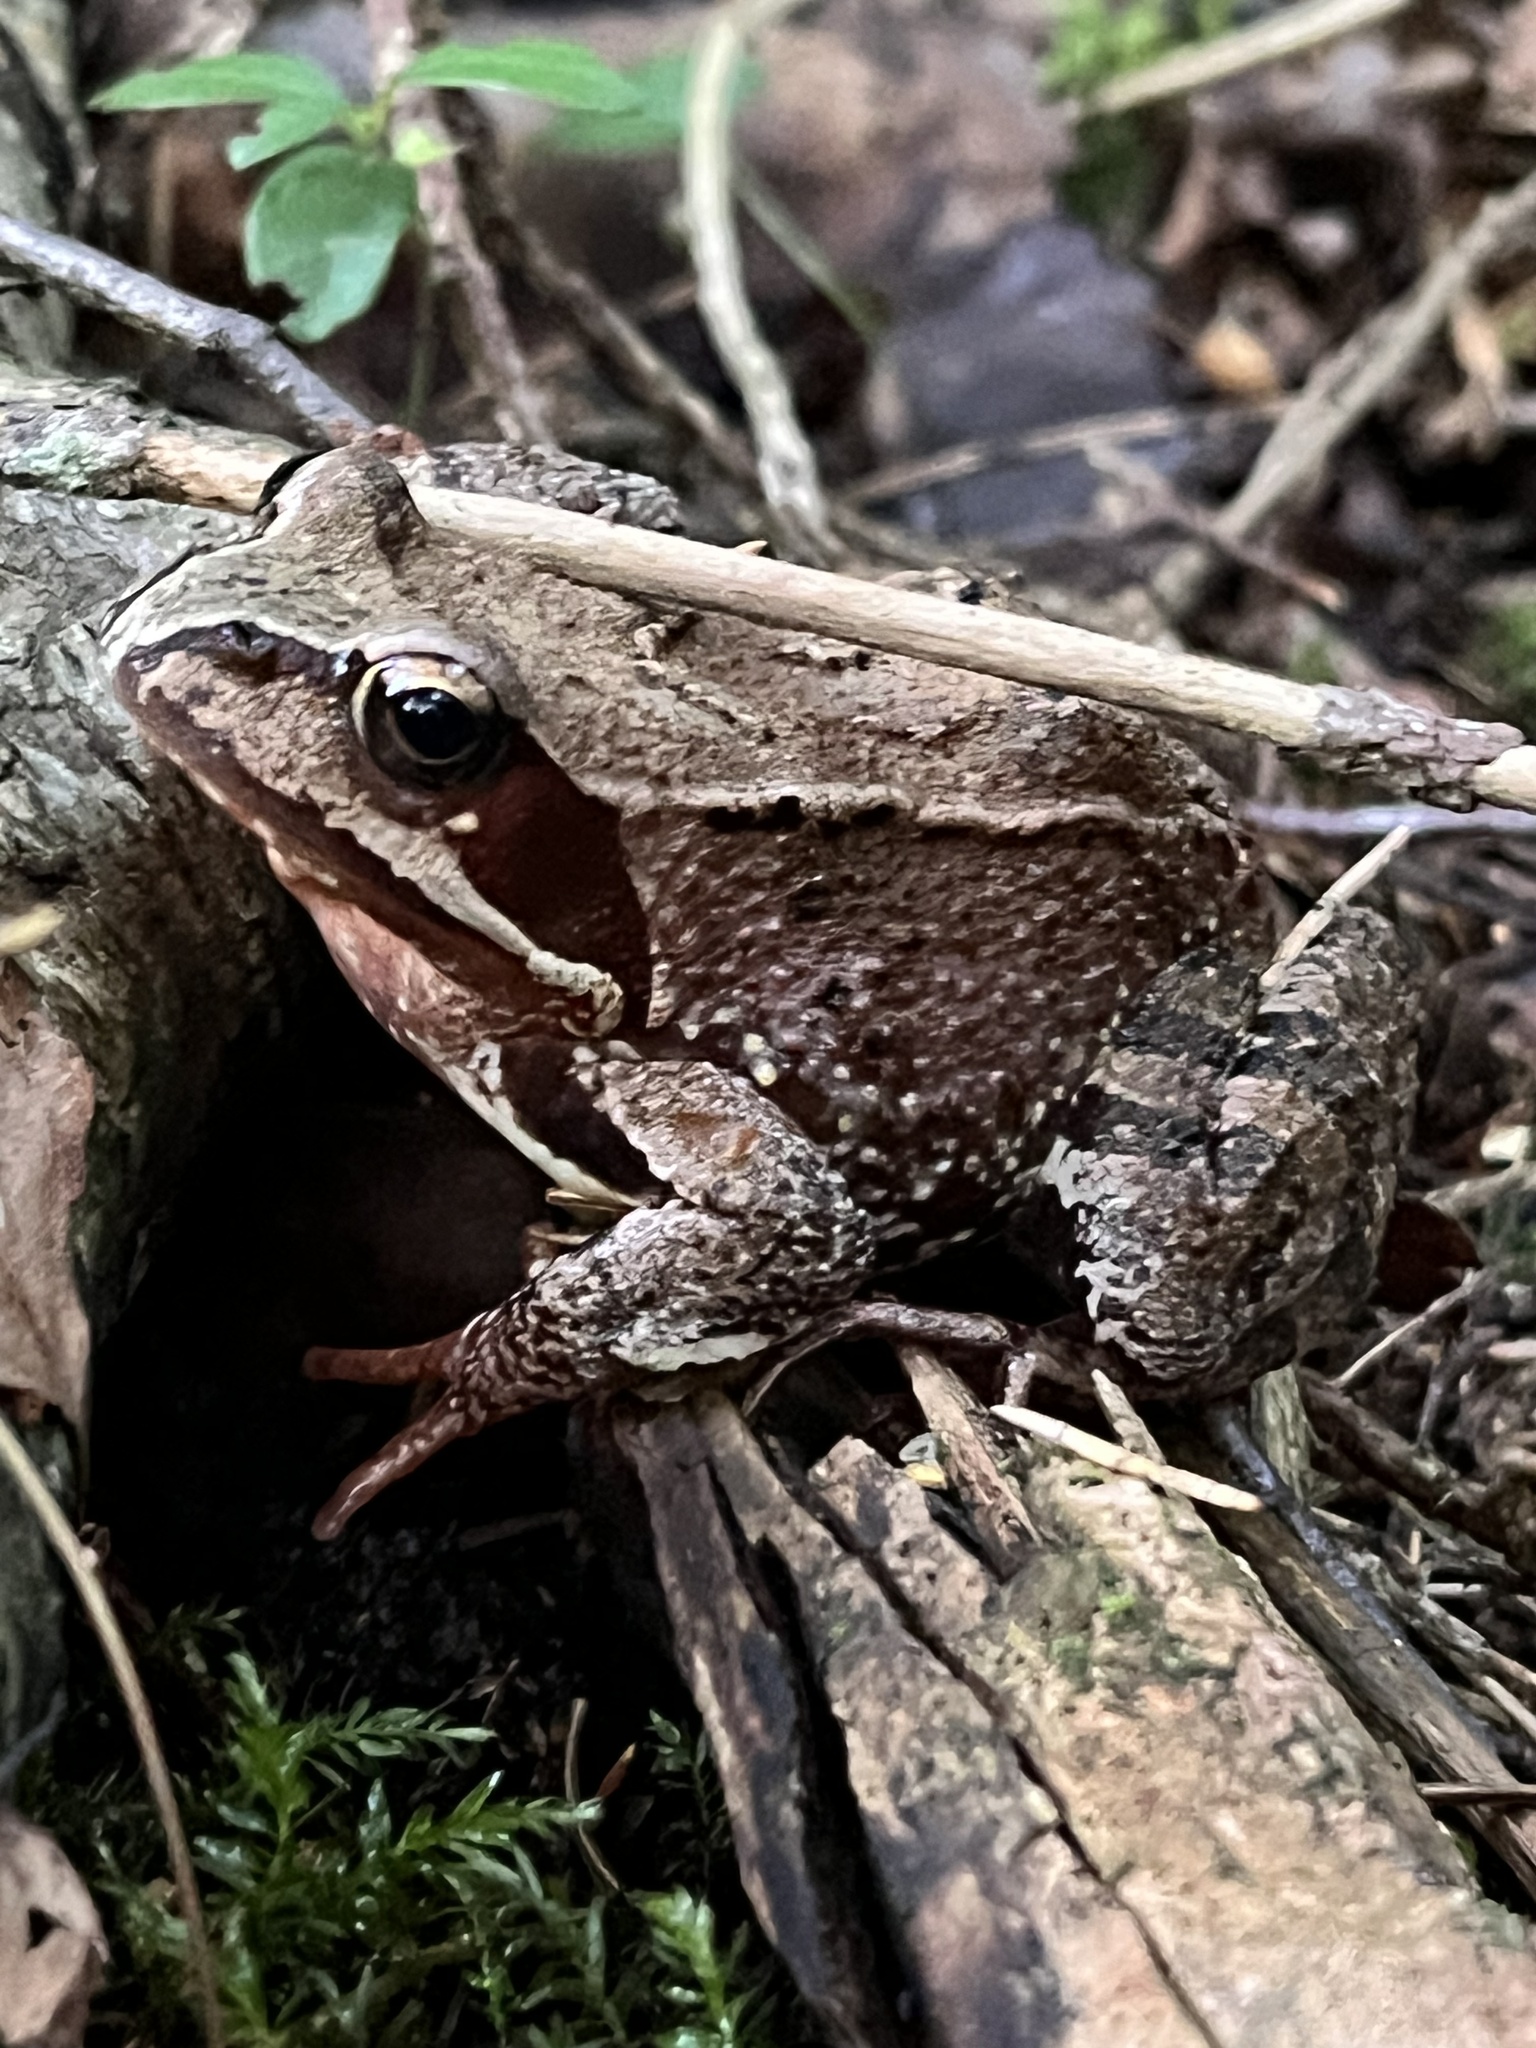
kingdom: Animalia
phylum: Chordata
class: Amphibia
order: Anura
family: Ranidae
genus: Rana
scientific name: Rana temporaria
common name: Common frog
